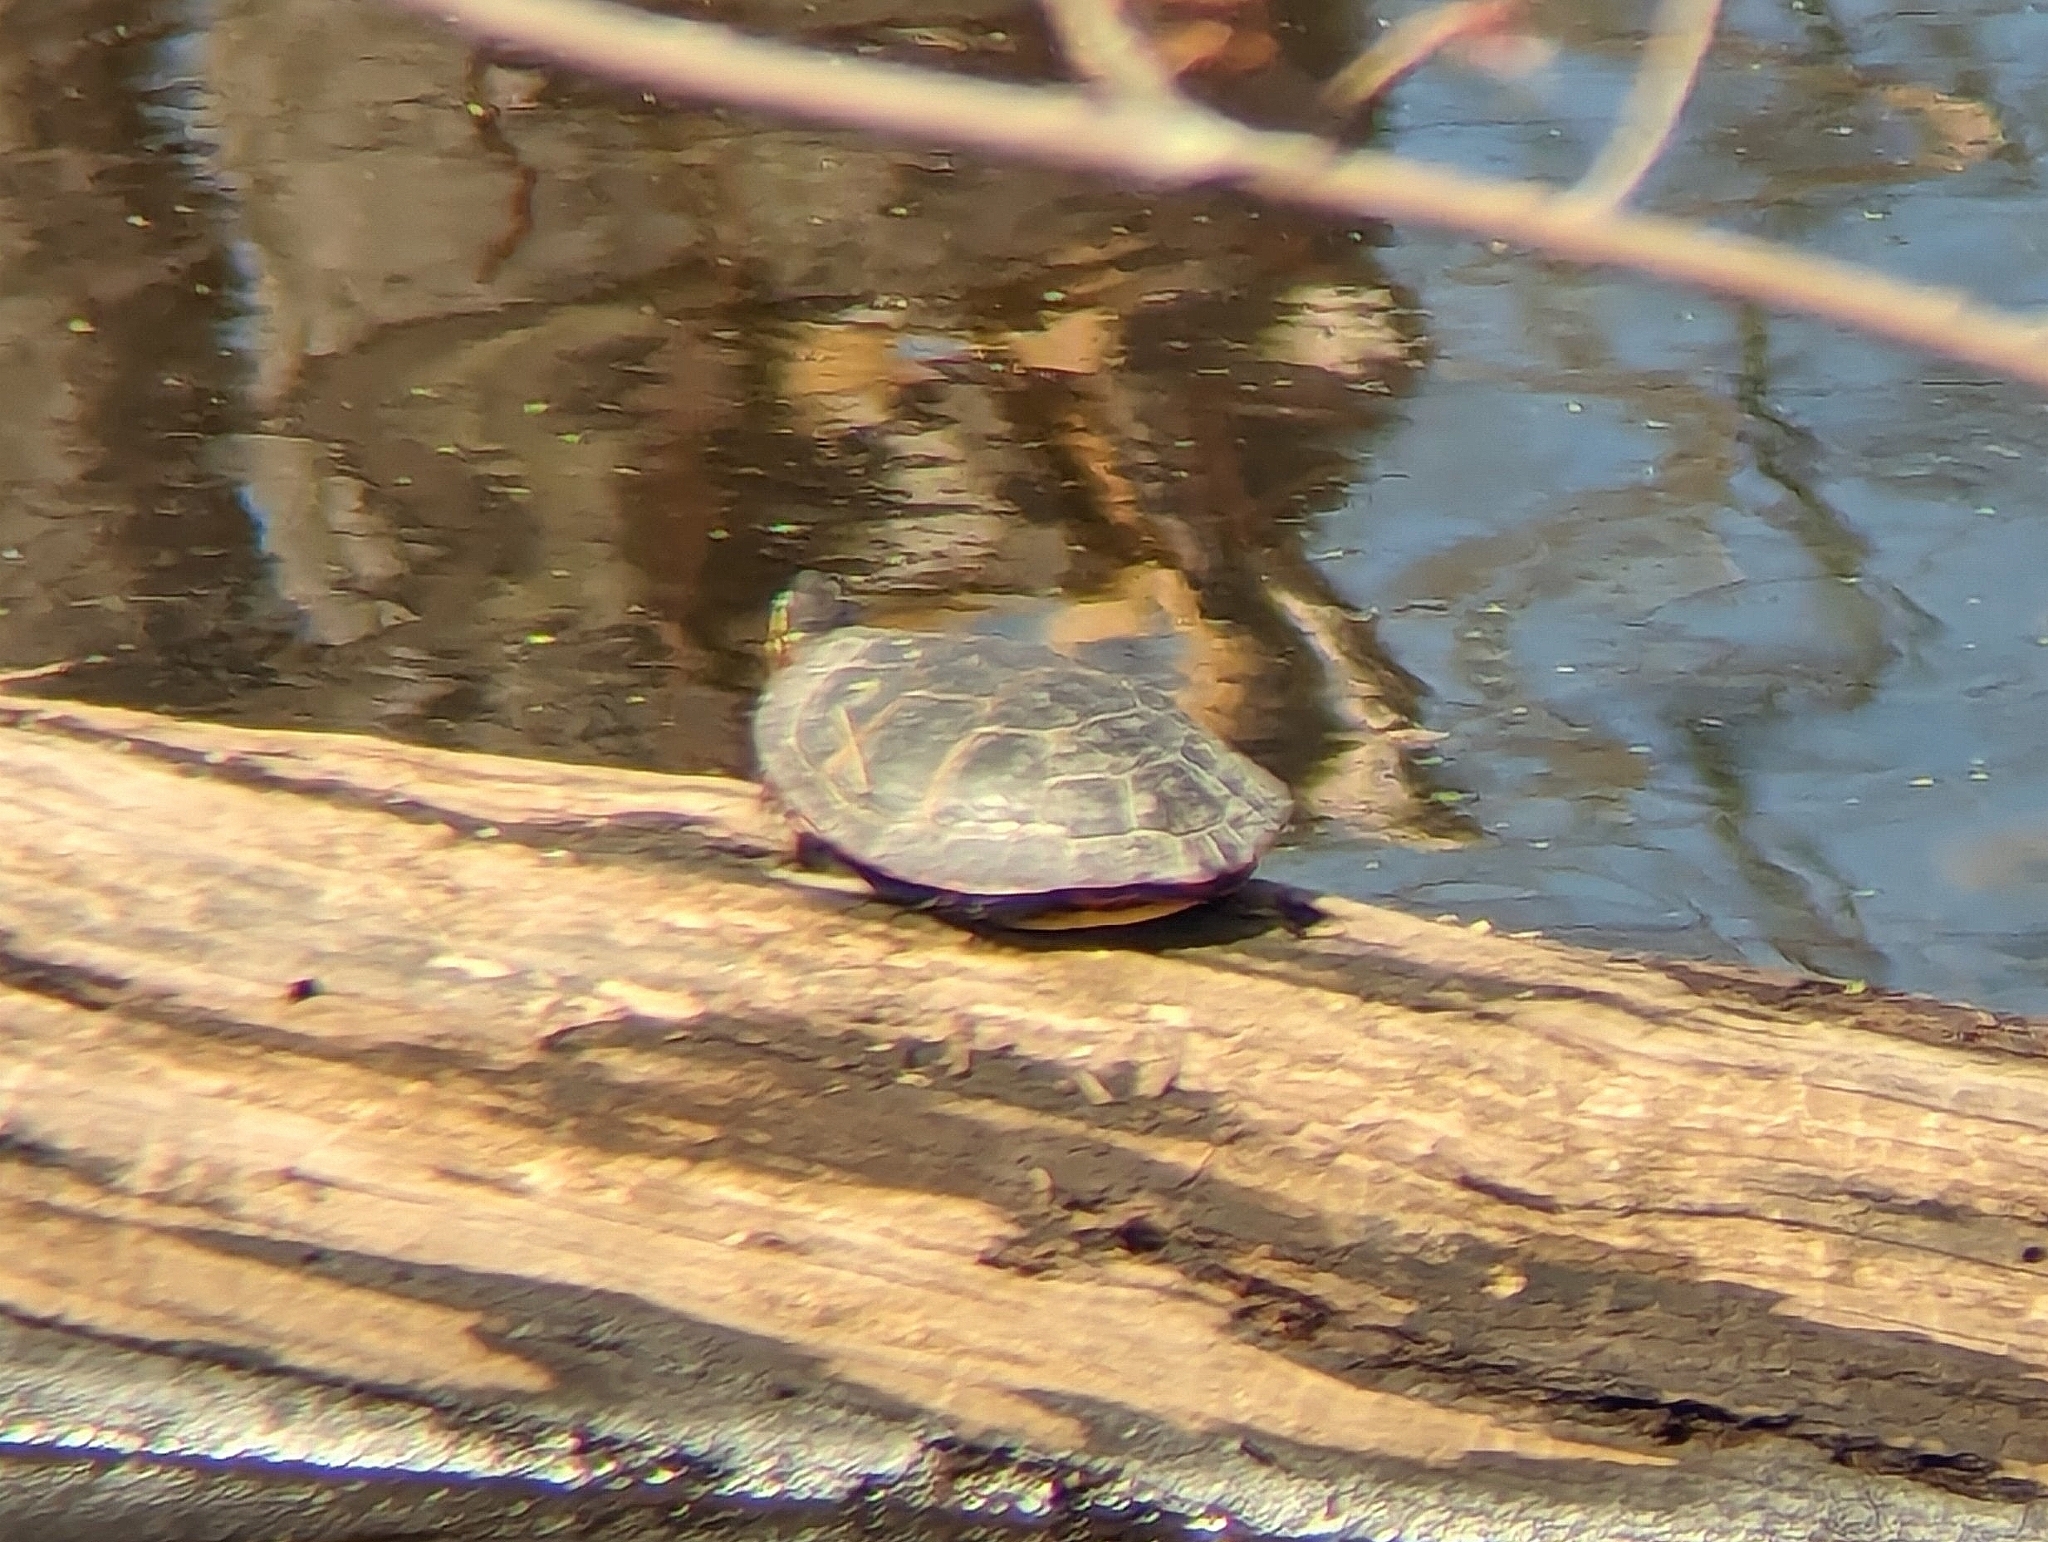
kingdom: Animalia
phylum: Chordata
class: Testudines
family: Emydidae
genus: Chrysemys
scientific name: Chrysemys picta
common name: Painted turtle
